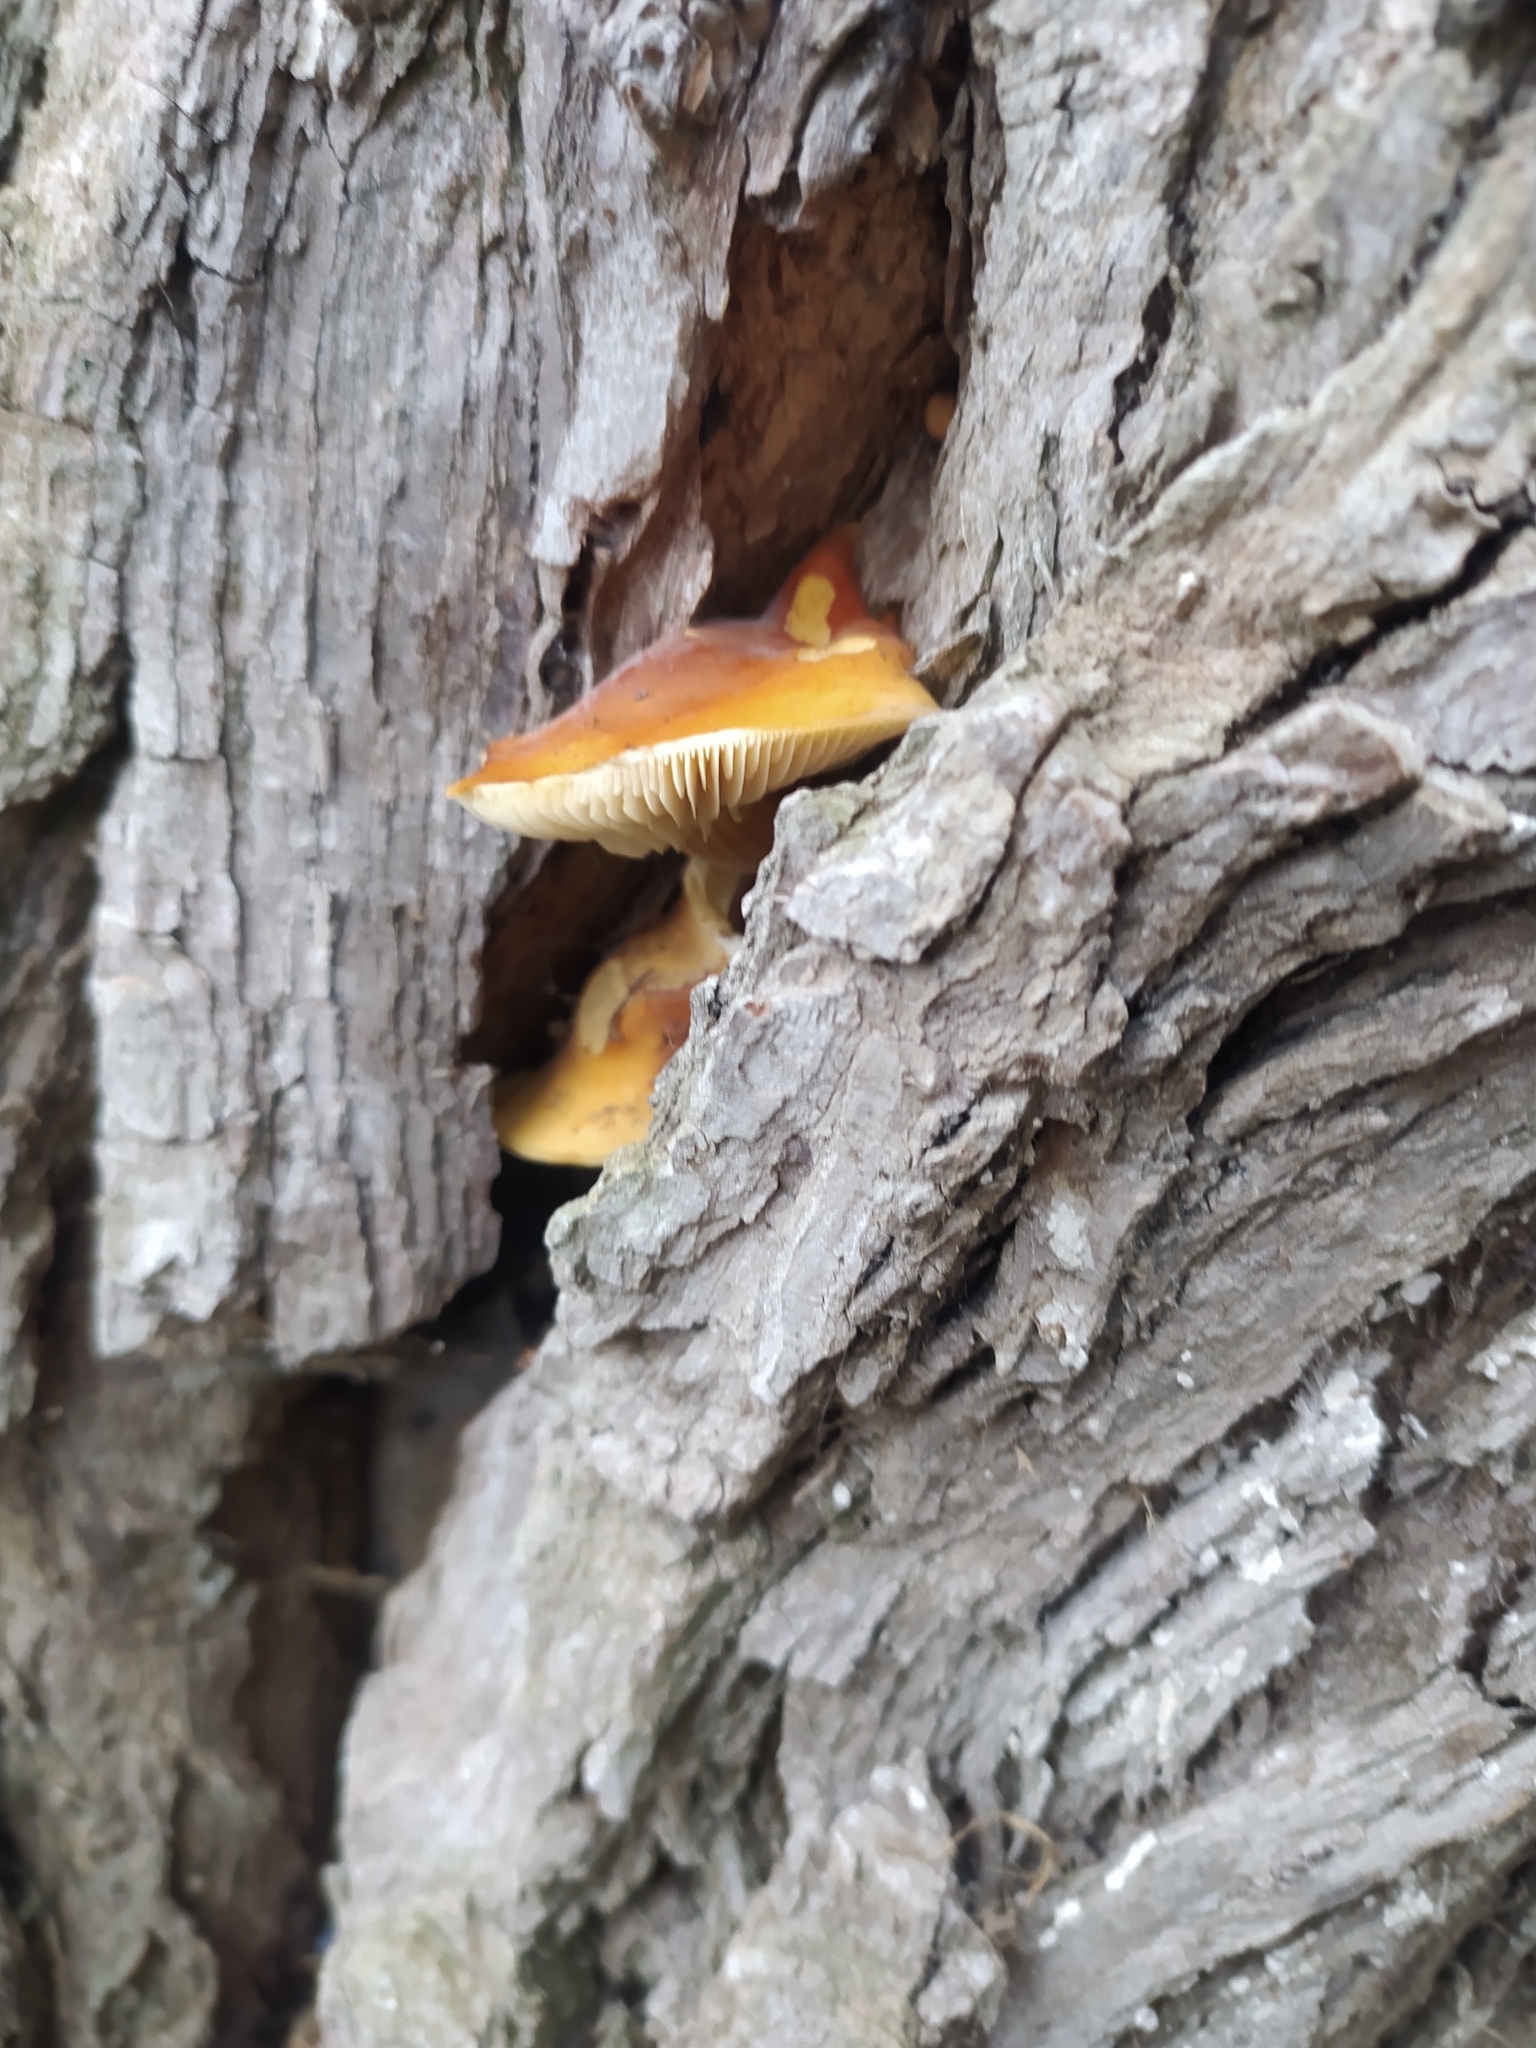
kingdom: Fungi
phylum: Basidiomycota
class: Agaricomycetes
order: Agaricales
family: Physalacriaceae
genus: Flammulina
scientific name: Flammulina
